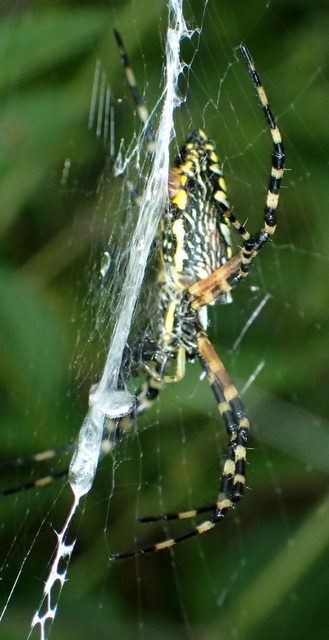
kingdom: Animalia
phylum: Arthropoda
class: Arachnida
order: Araneae
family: Araneidae
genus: Argiope
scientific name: Argiope aurantia
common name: Orb weavers
